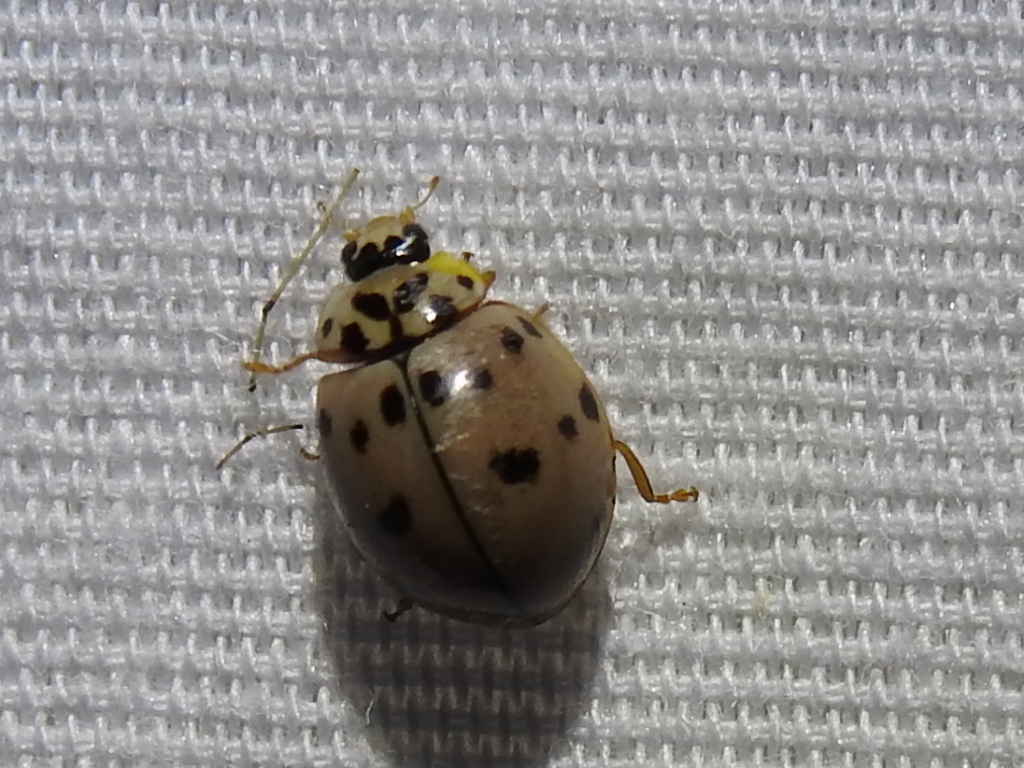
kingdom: Animalia
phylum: Arthropoda
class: Insecta
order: Coleoptera
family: Coccinellidae
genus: Olla
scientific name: Olla v-nigrum
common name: Ashy gray lady beetle
